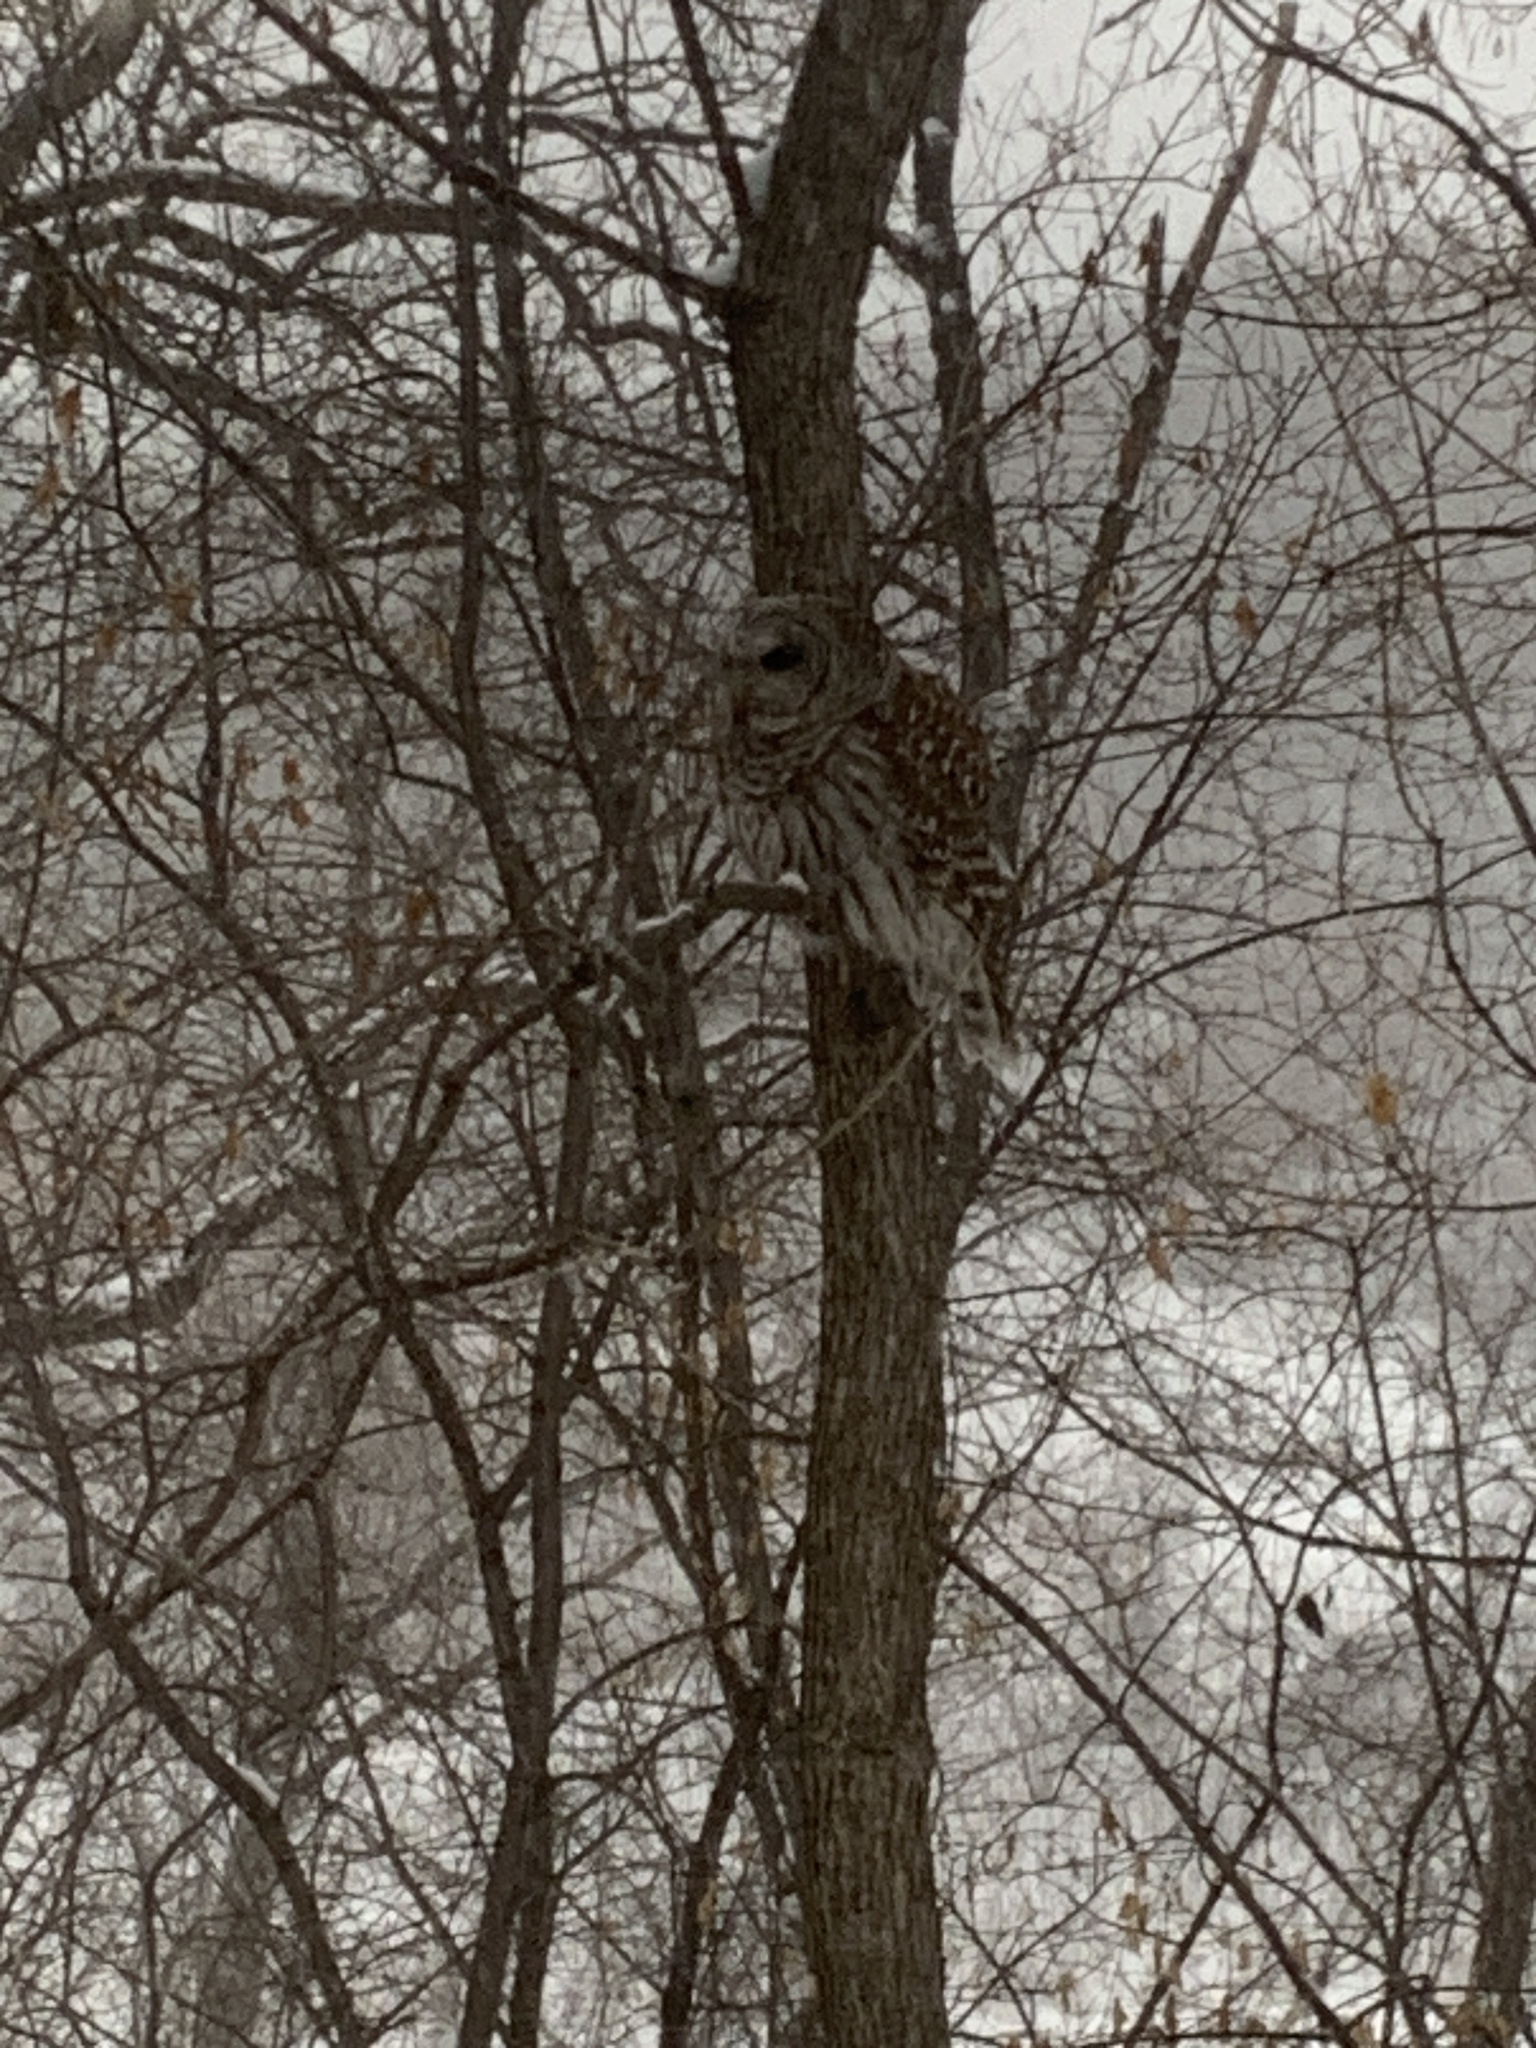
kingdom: Animalia
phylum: Chordata
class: Aves
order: Strigiformes
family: Strigidae
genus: Strix
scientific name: Strix varia
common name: Barred owl
